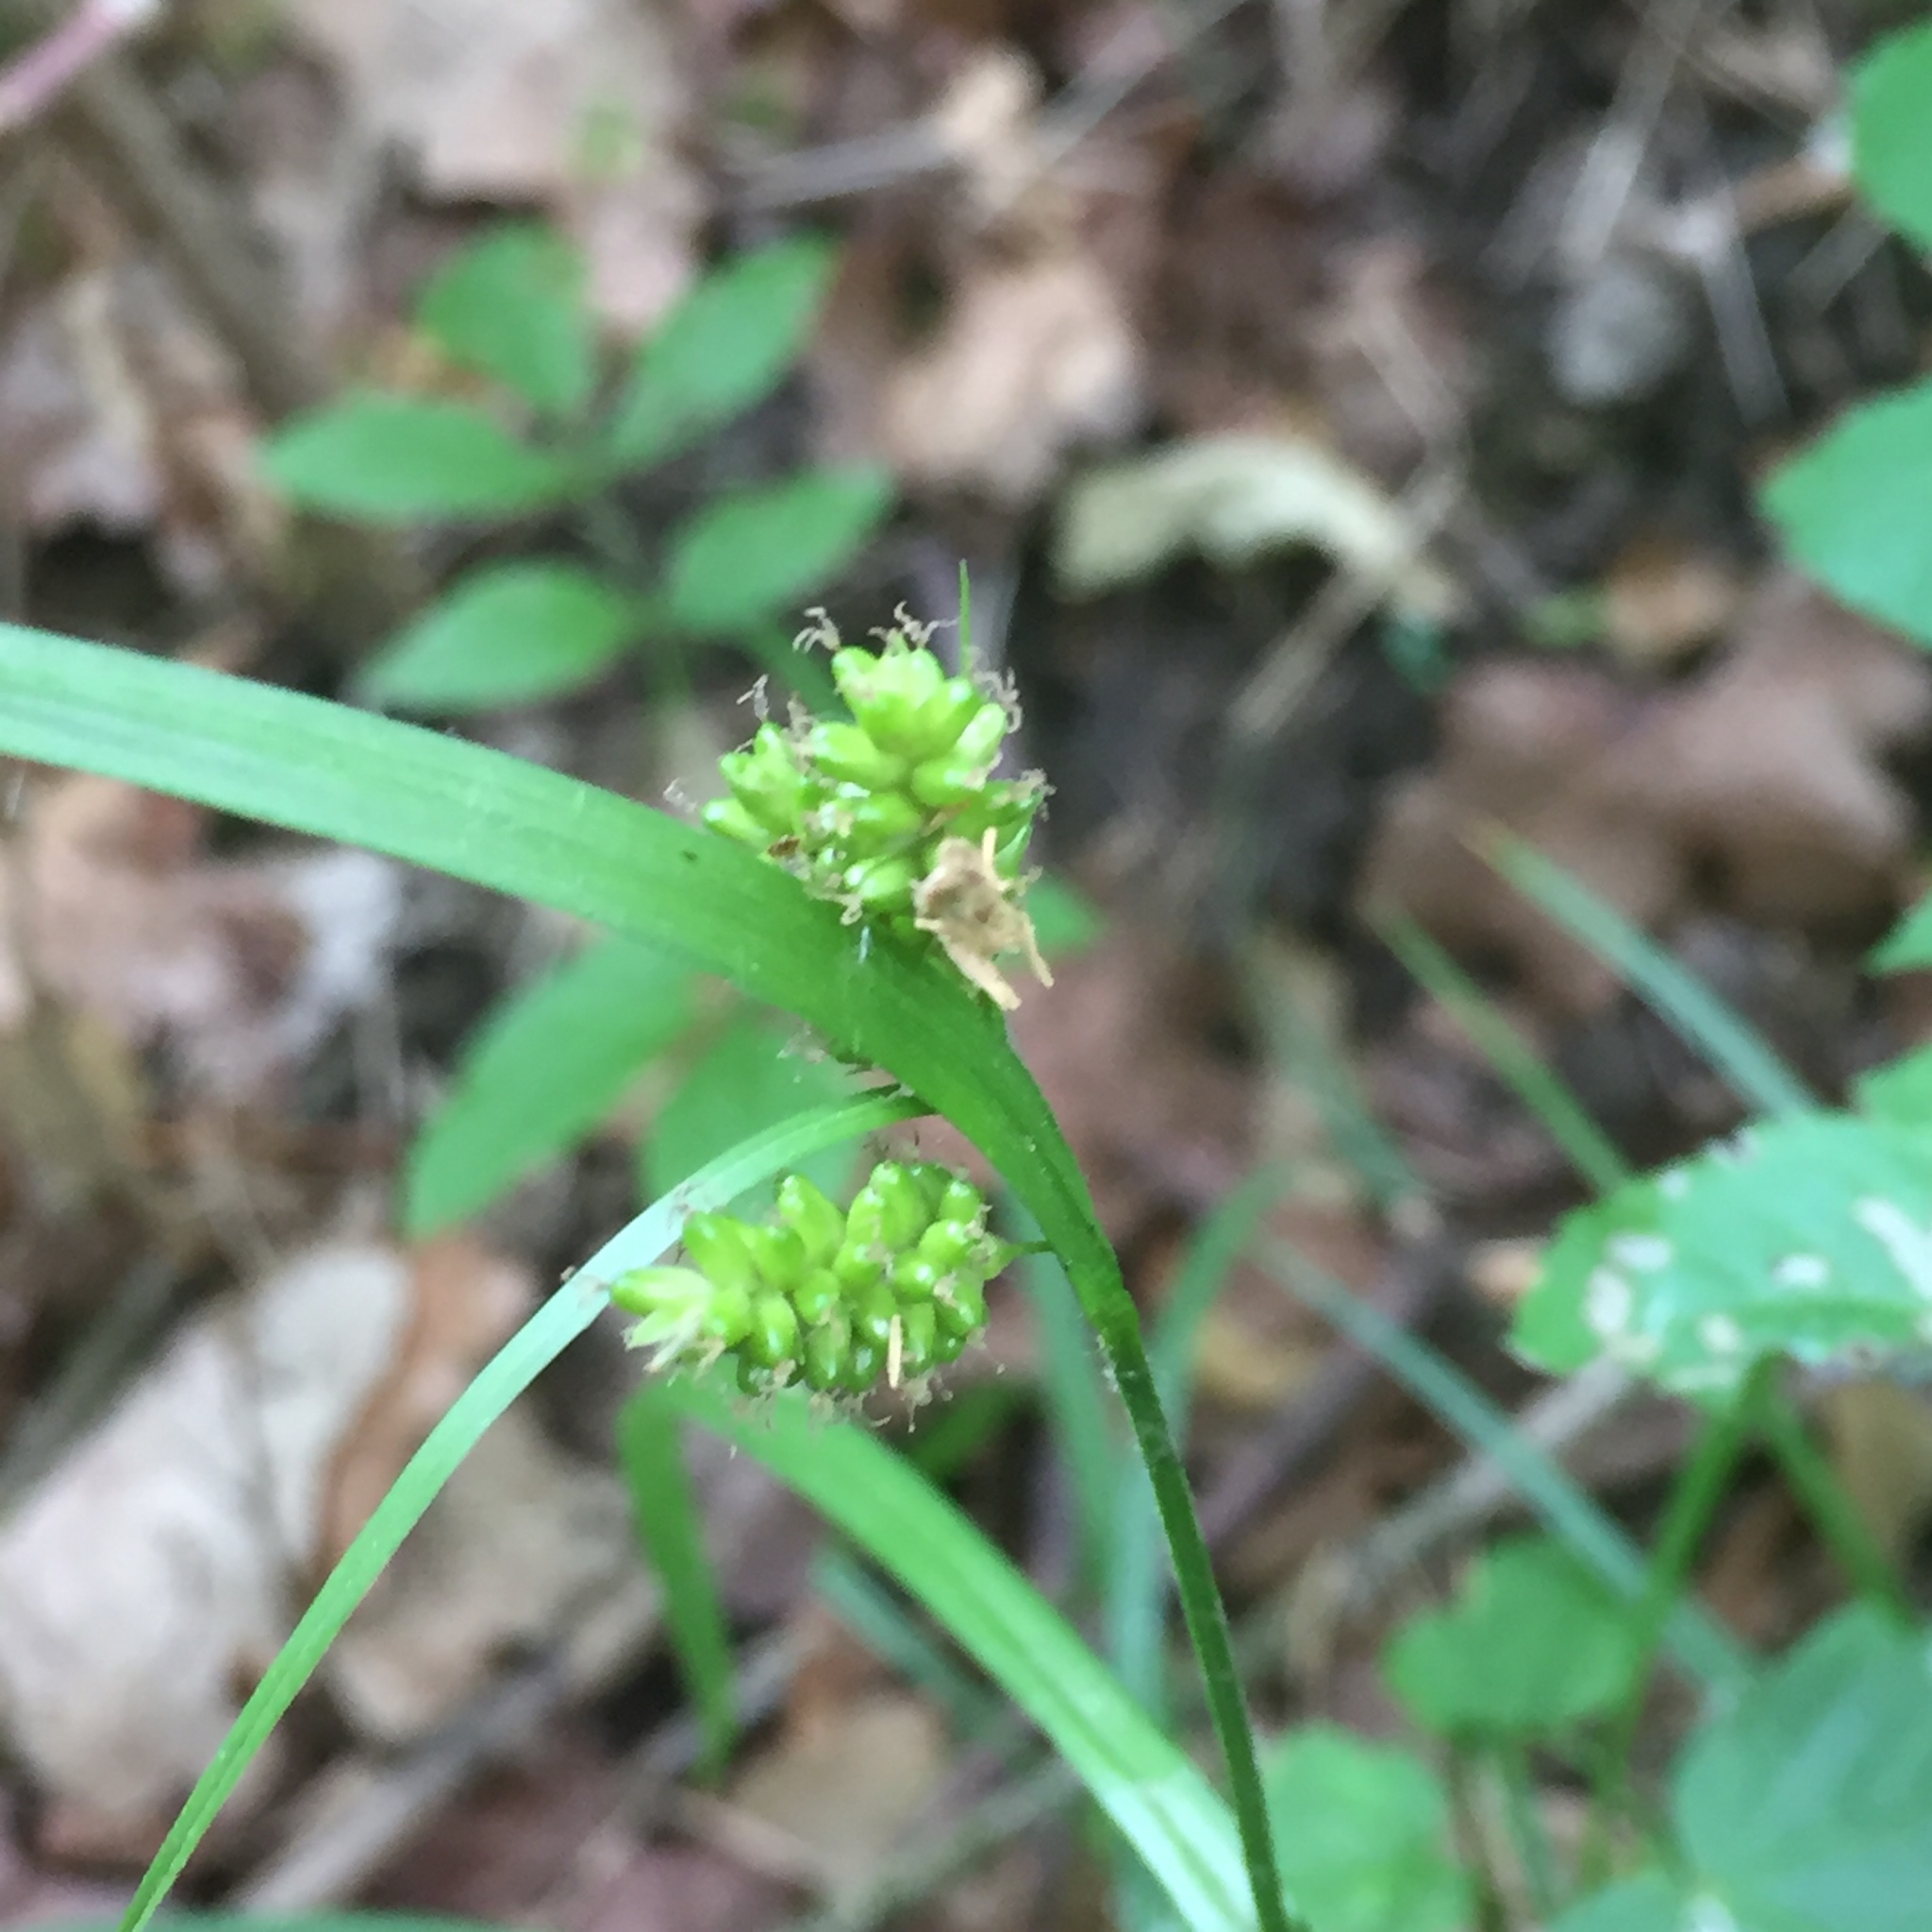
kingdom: Plantae
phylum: Tracheophyta
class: Liliopsida
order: Poales
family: Cyperaceae
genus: Carex
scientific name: Carex pallescens
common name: Pale sedge
